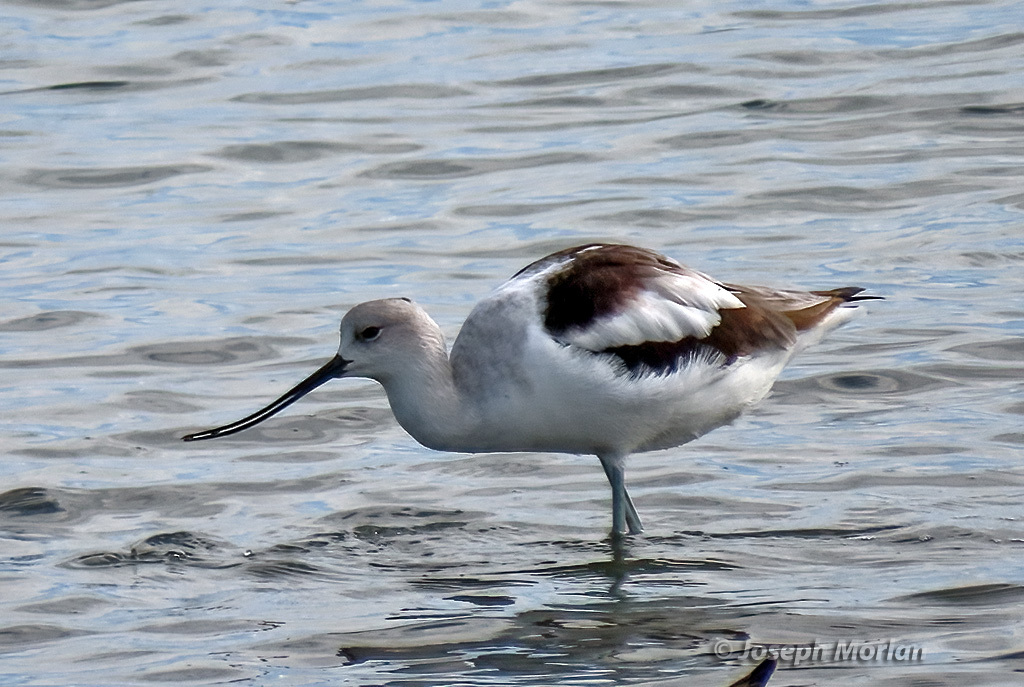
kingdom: Animalia
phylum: Chordata
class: Aves
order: Charadriiformes
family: Recurvirostridae
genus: Recurvirostra
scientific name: Recurvirostra americana
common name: American avocet
